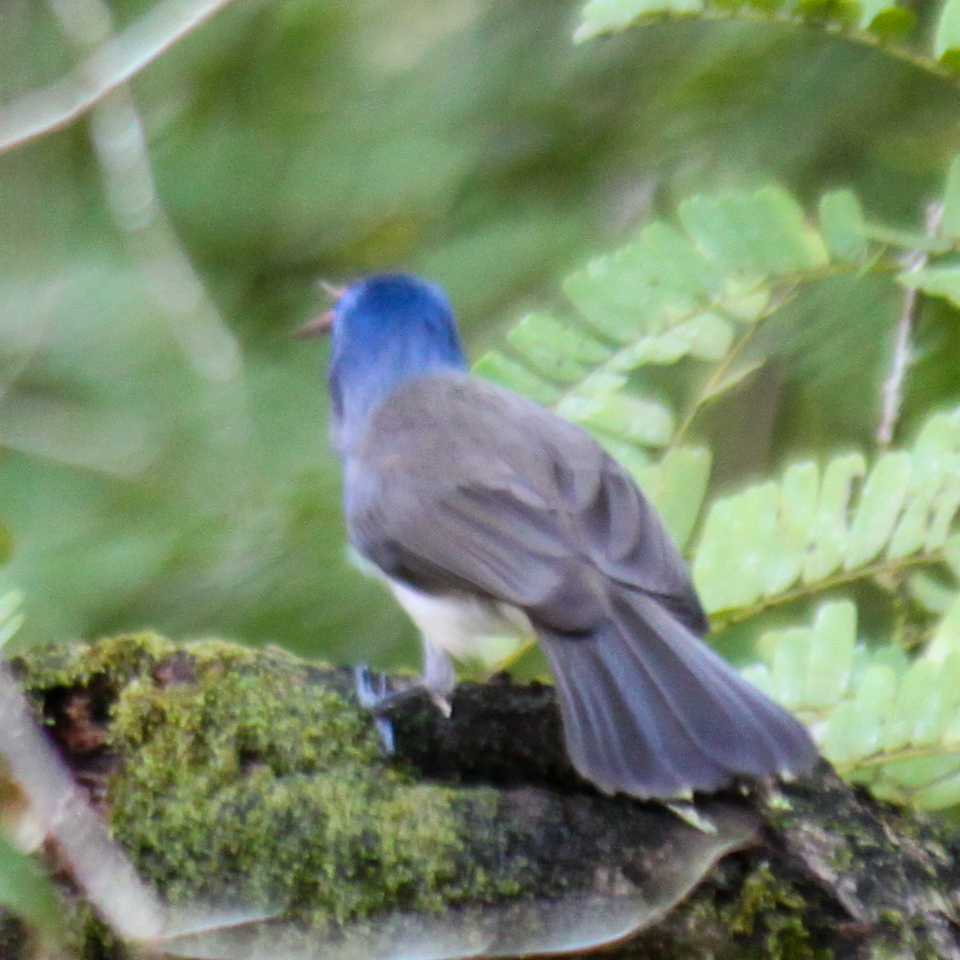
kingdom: Animalia
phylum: Chordata
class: Aves
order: Passeriformes
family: Monarchidae
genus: Hypothymis
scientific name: Hypothymis azurea
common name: Black-naped monarch
